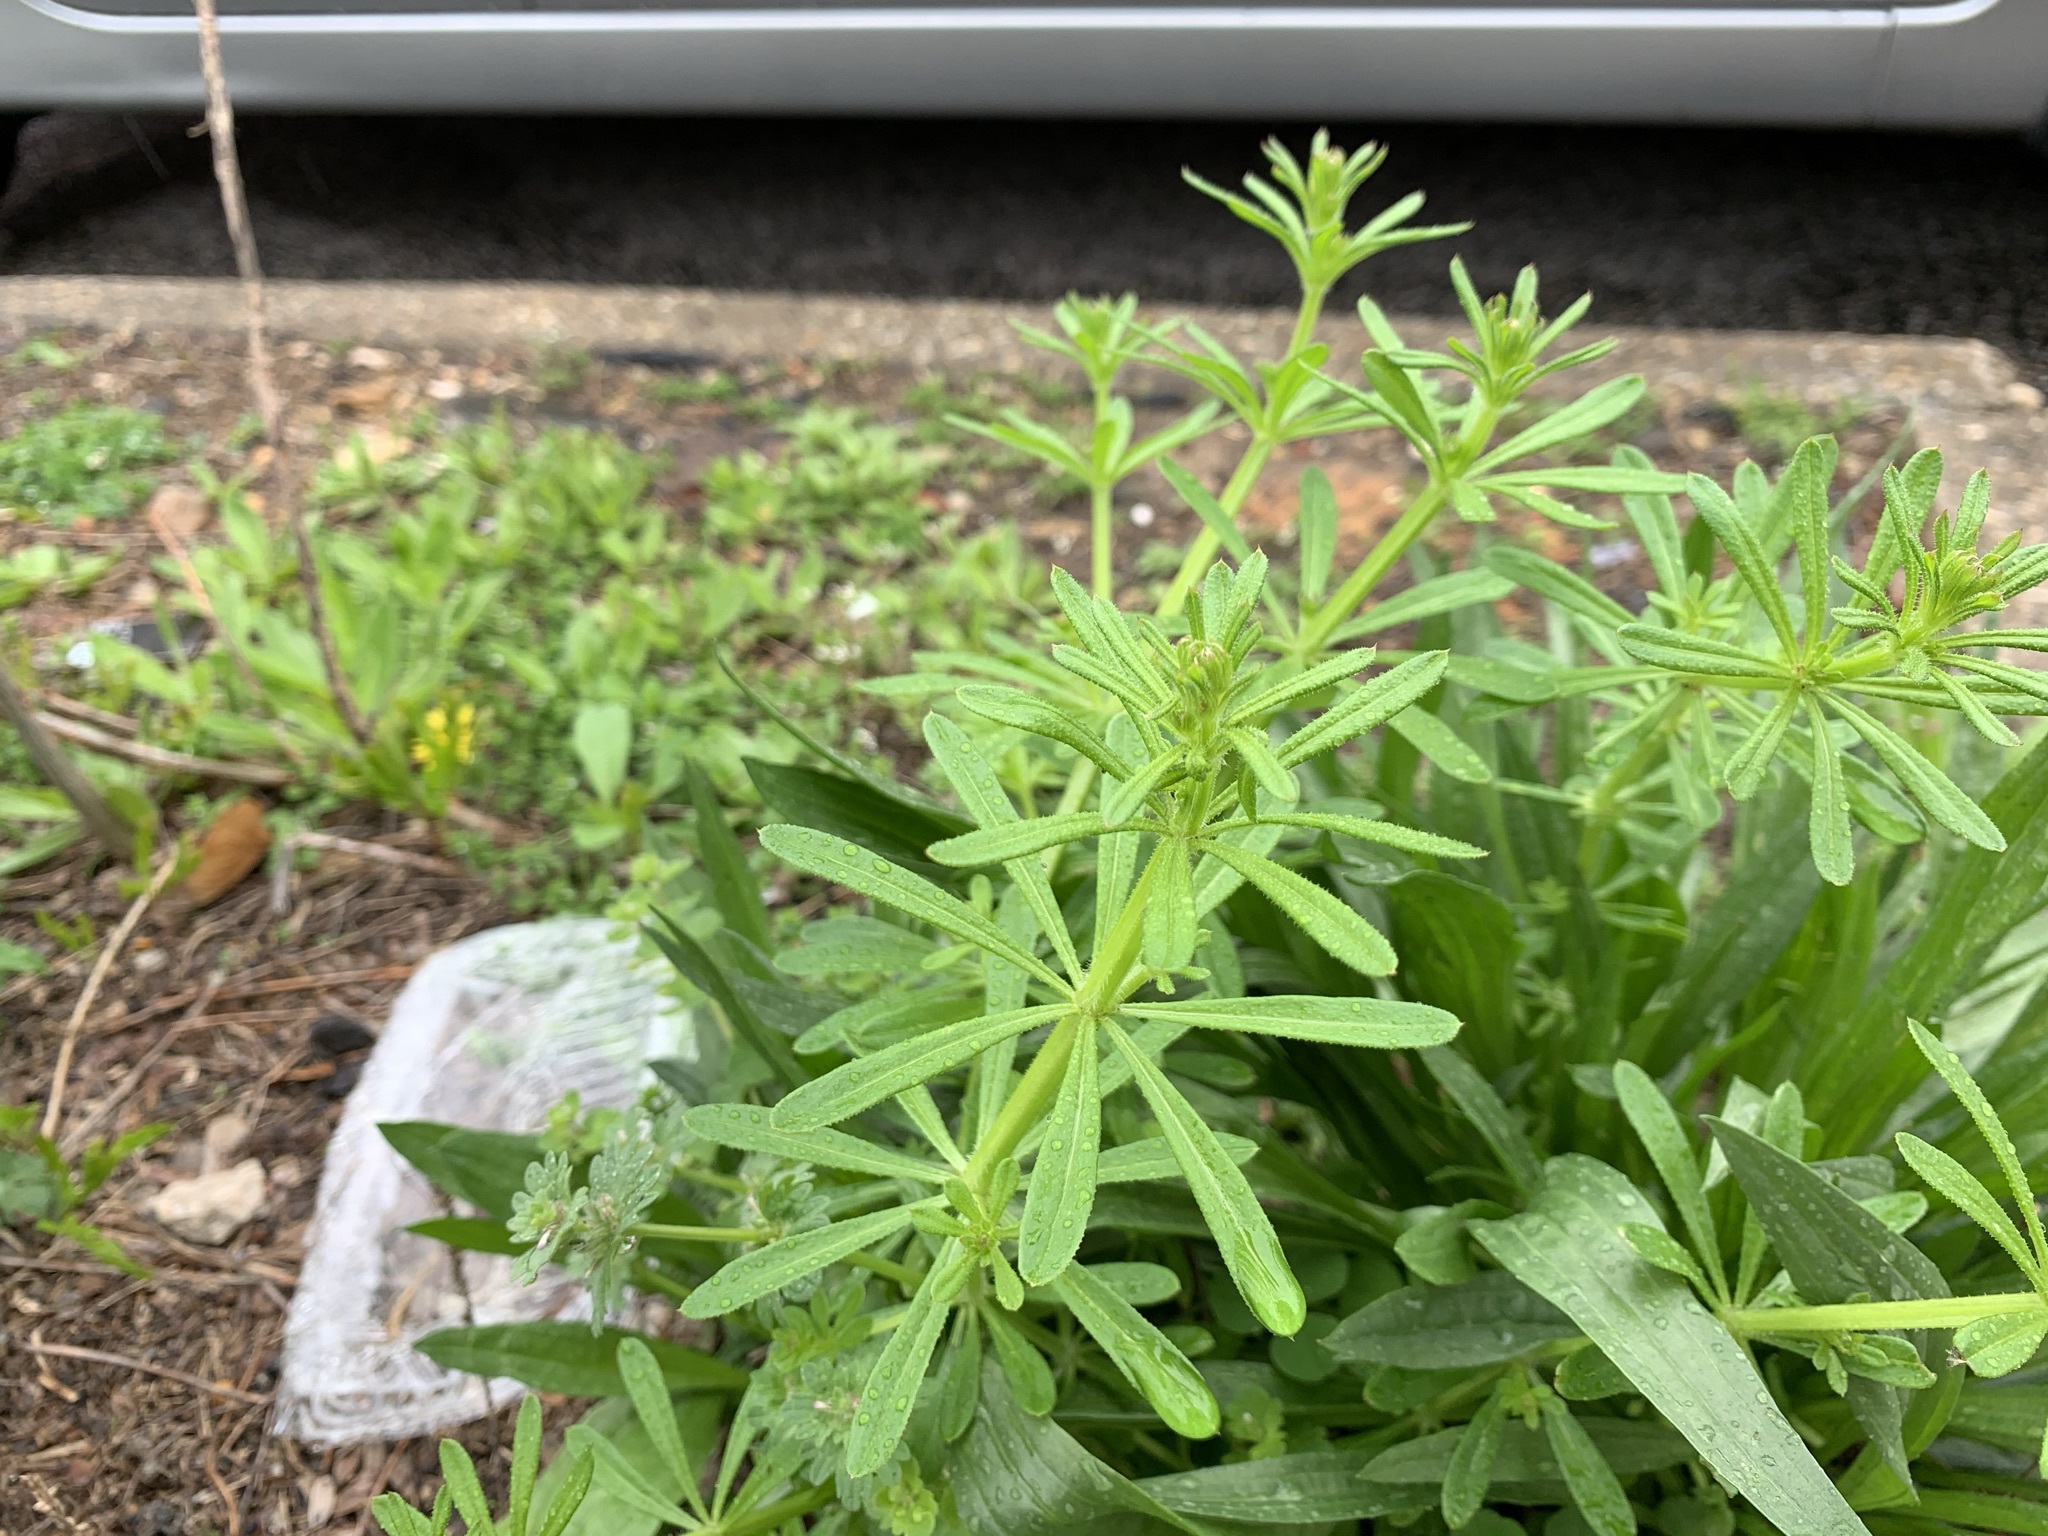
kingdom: Plantae
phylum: Tracheophyta
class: Magnoliopsida
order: Gentianales
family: Rubiaceae
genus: Galium
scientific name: Galium aparine
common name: Cleavers
